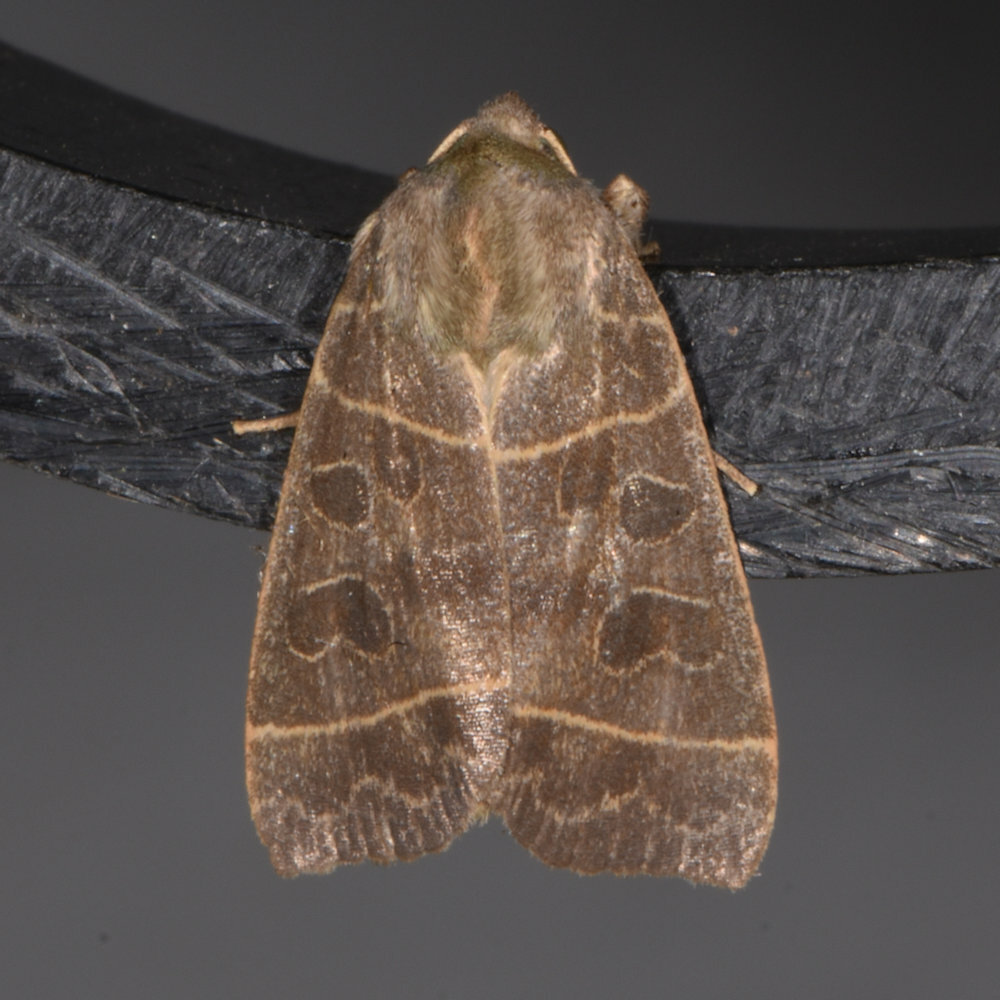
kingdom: Animalia
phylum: Arthropoda
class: Insecta
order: Lepidoptera
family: Noctuidae
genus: Ipimorpha
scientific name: Ipimorpha pleonectusa
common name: Even-lined sallow
